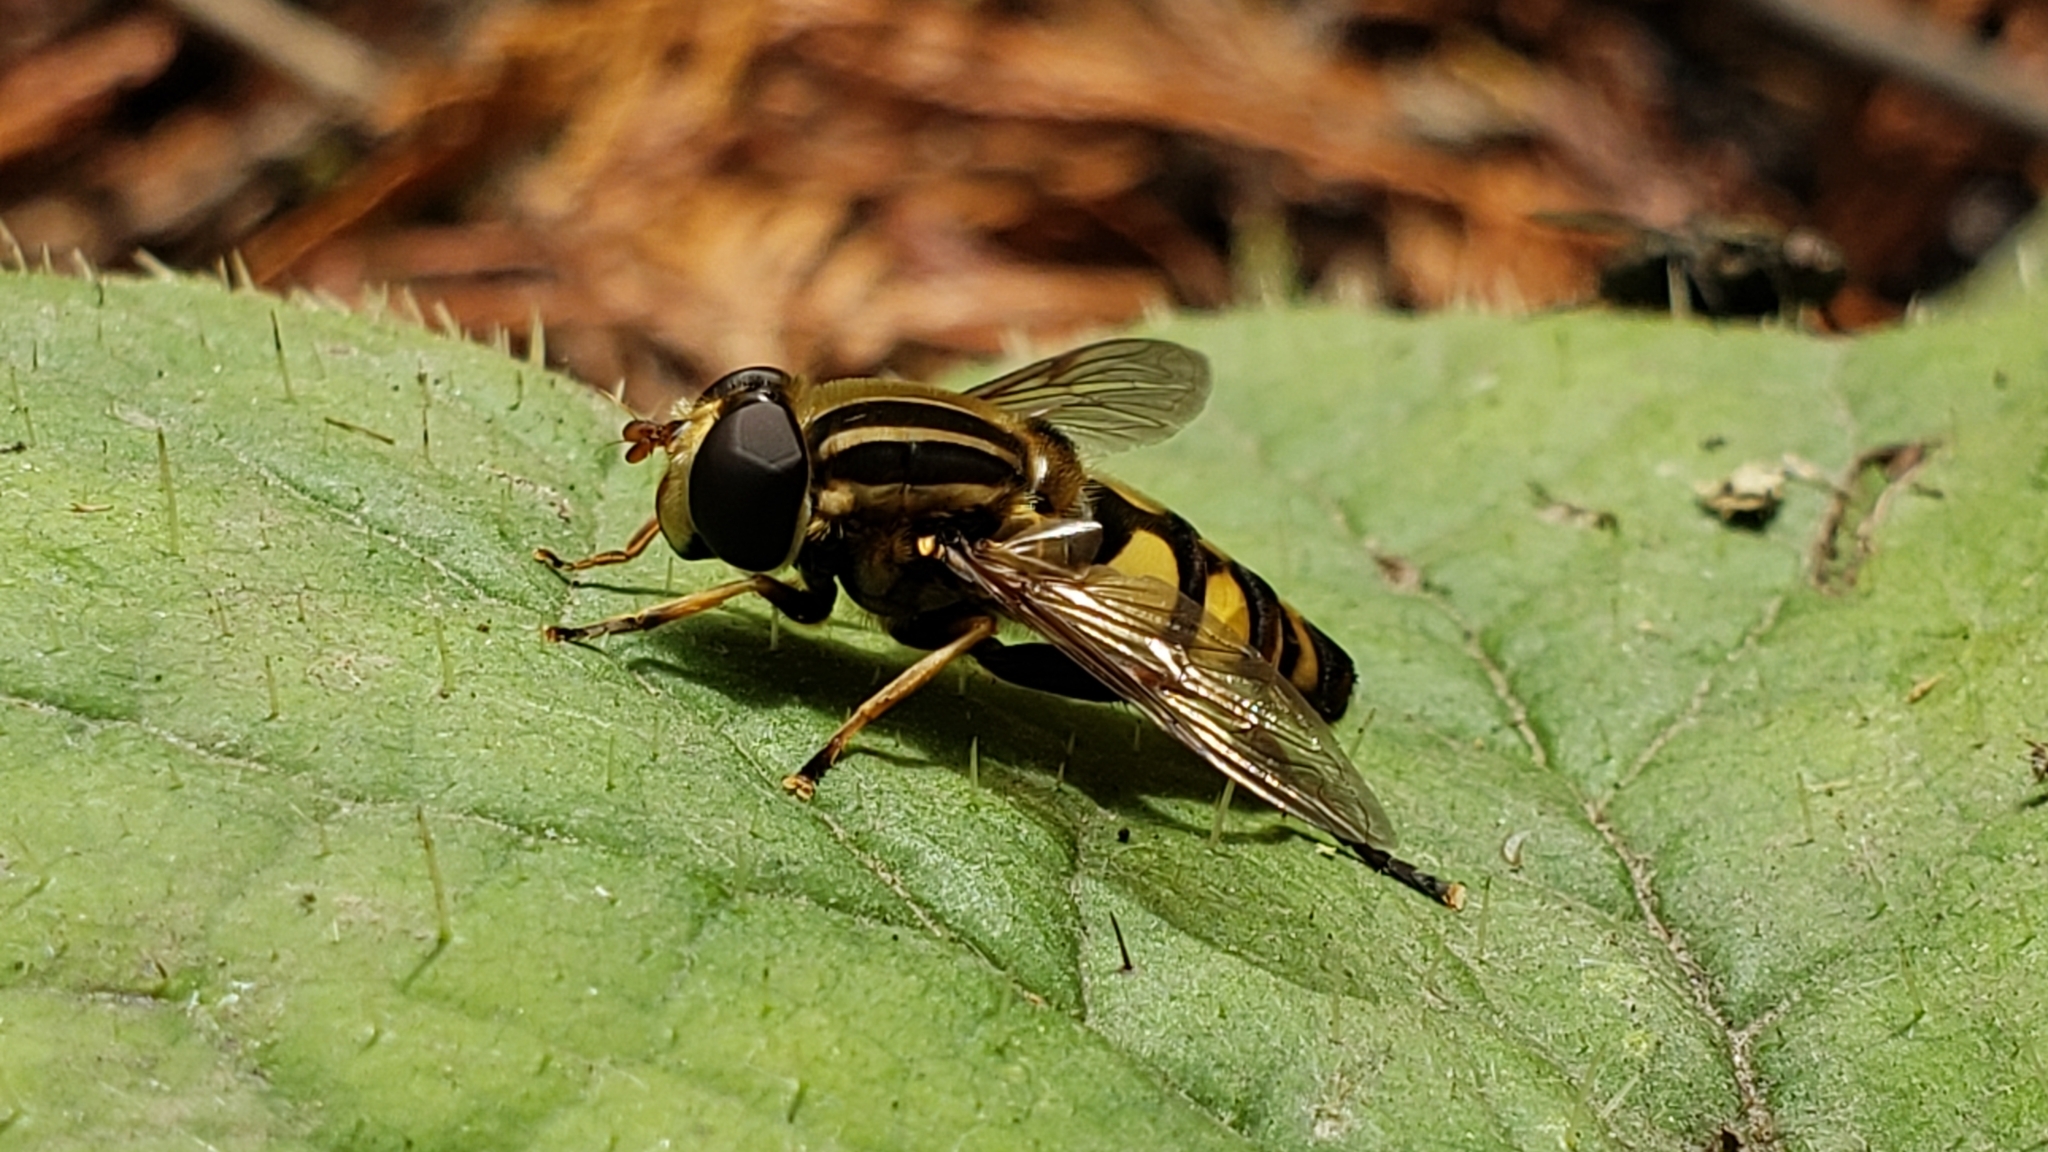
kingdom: Animalia
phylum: Arthropoda
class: Insecta
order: Diptera
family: Syrphidae
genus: Helophilus
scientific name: Helophilus fasciatus
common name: Narrow-headed marsh fly
